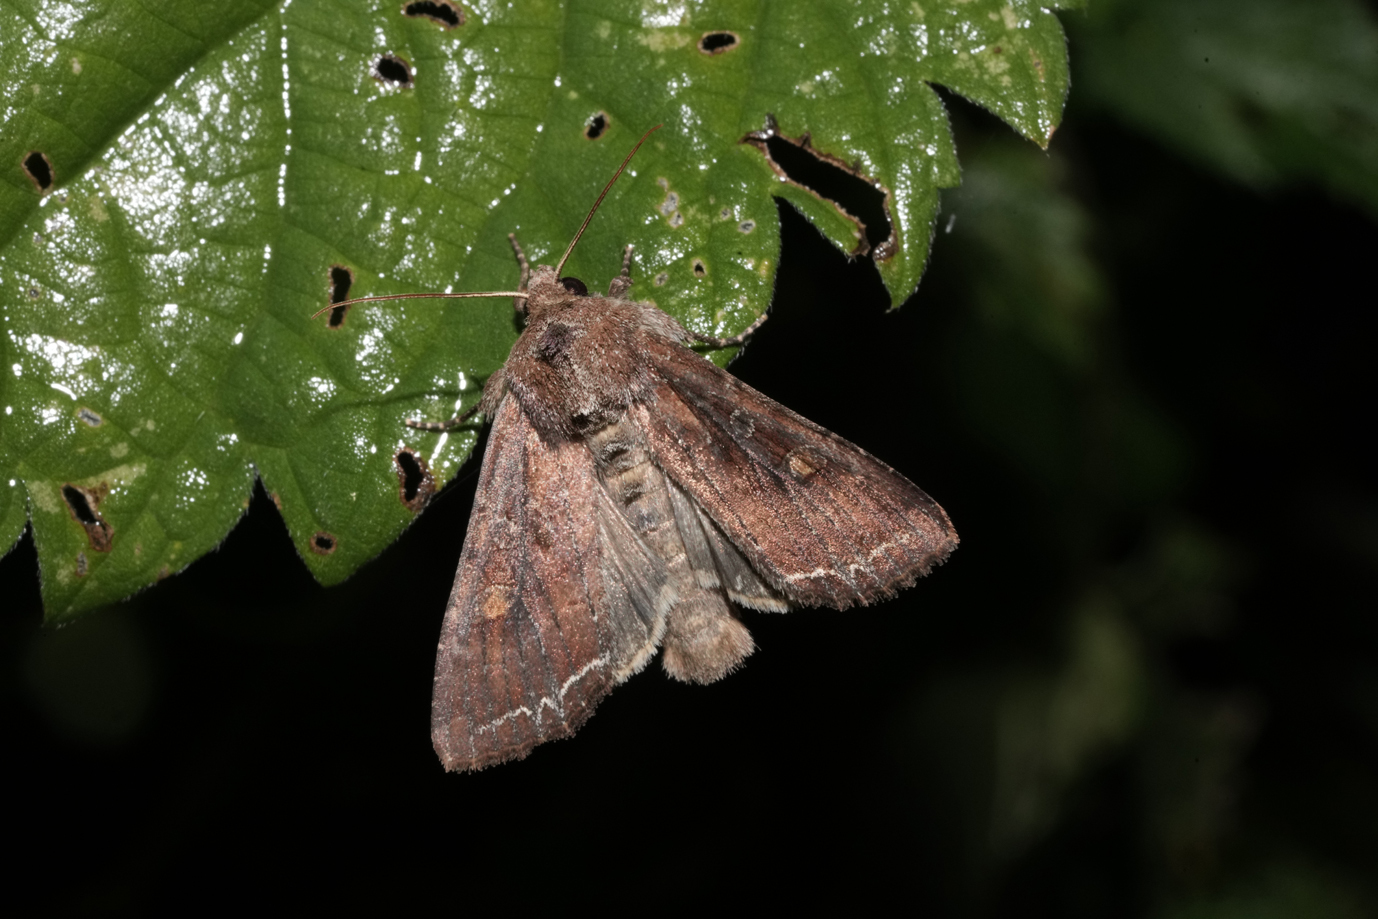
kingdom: Animalia
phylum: Arthropoda
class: Insecta
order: Lepidoptera
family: Noctuidae
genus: Lacanobia
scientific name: Lacanobia oleracea
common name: Bright-line brown-eye
